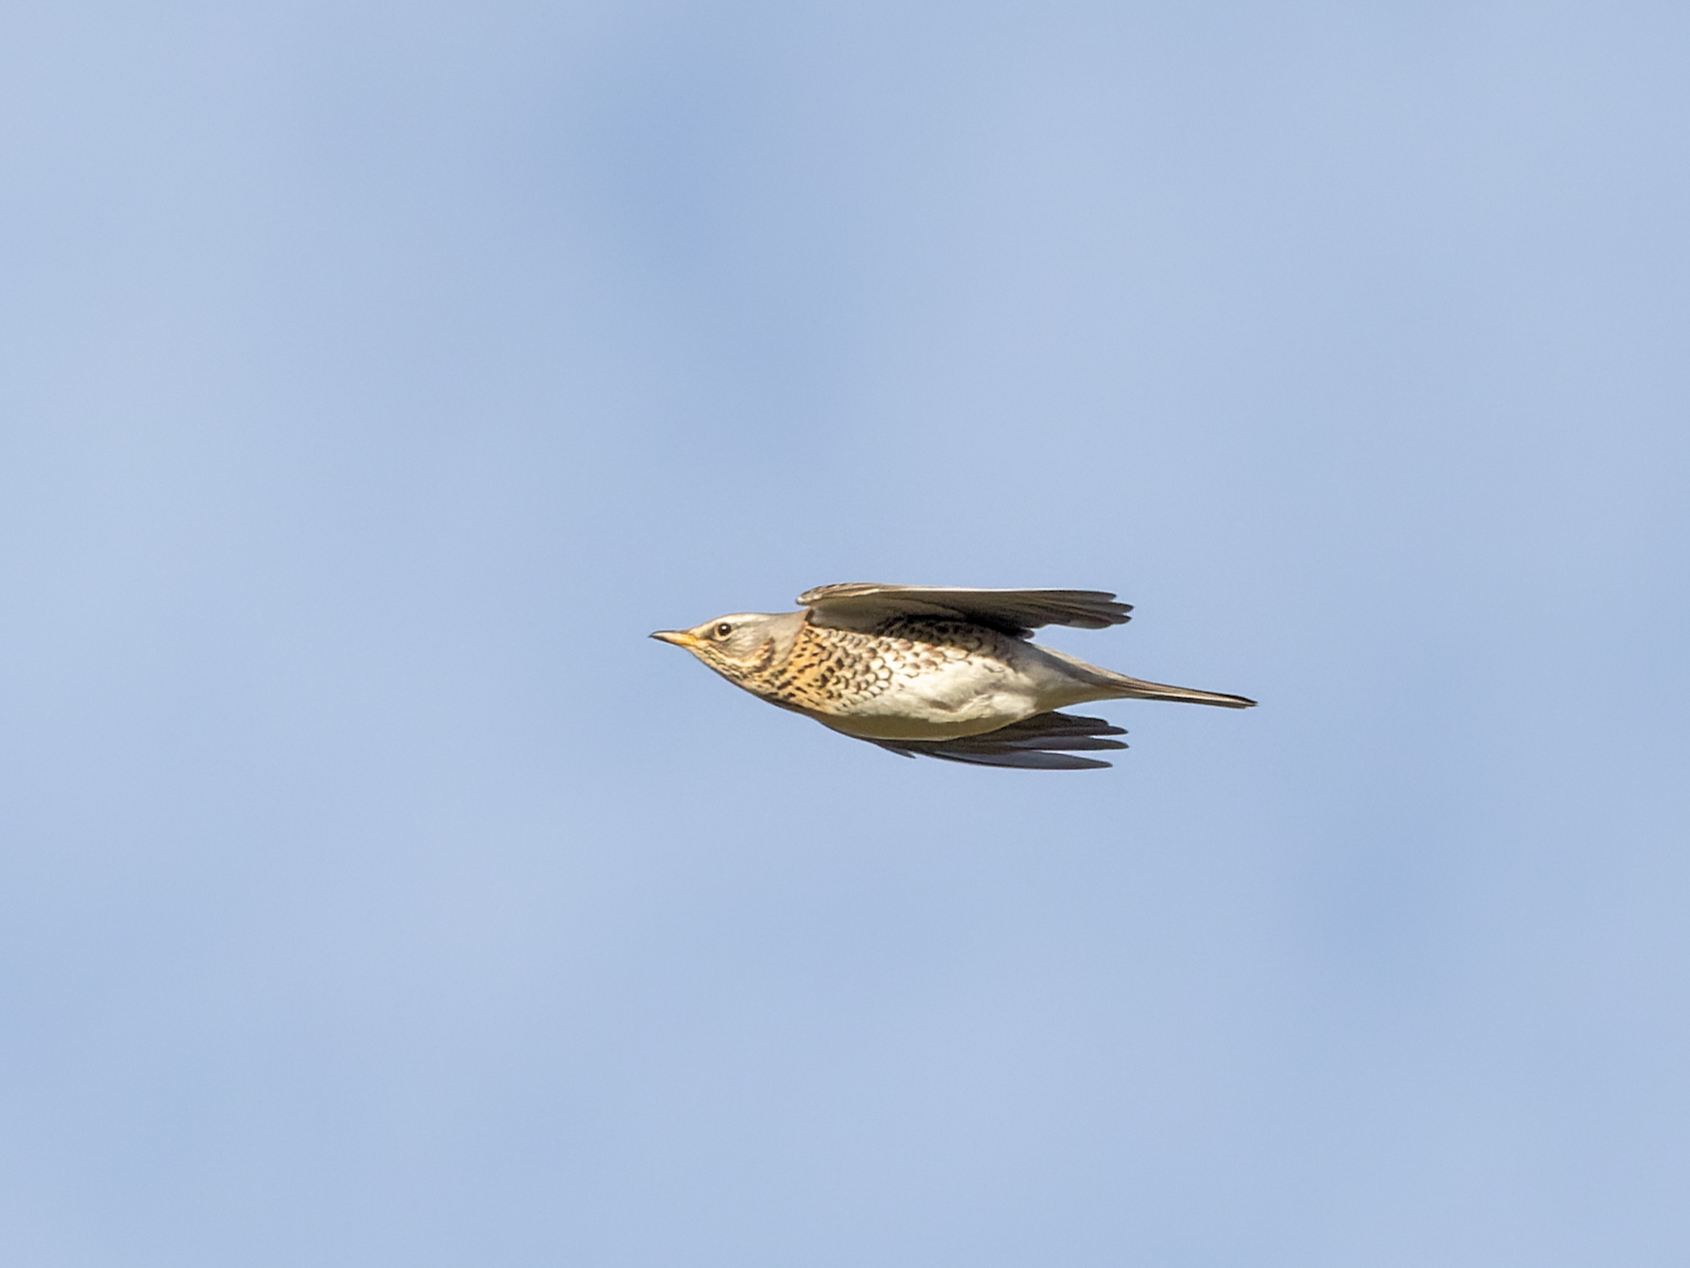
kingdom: Animalia
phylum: Chordata
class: Aves
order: Passeriformes
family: Turdidae
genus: Turdus
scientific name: Turdus pilaris
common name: Fieldfare
